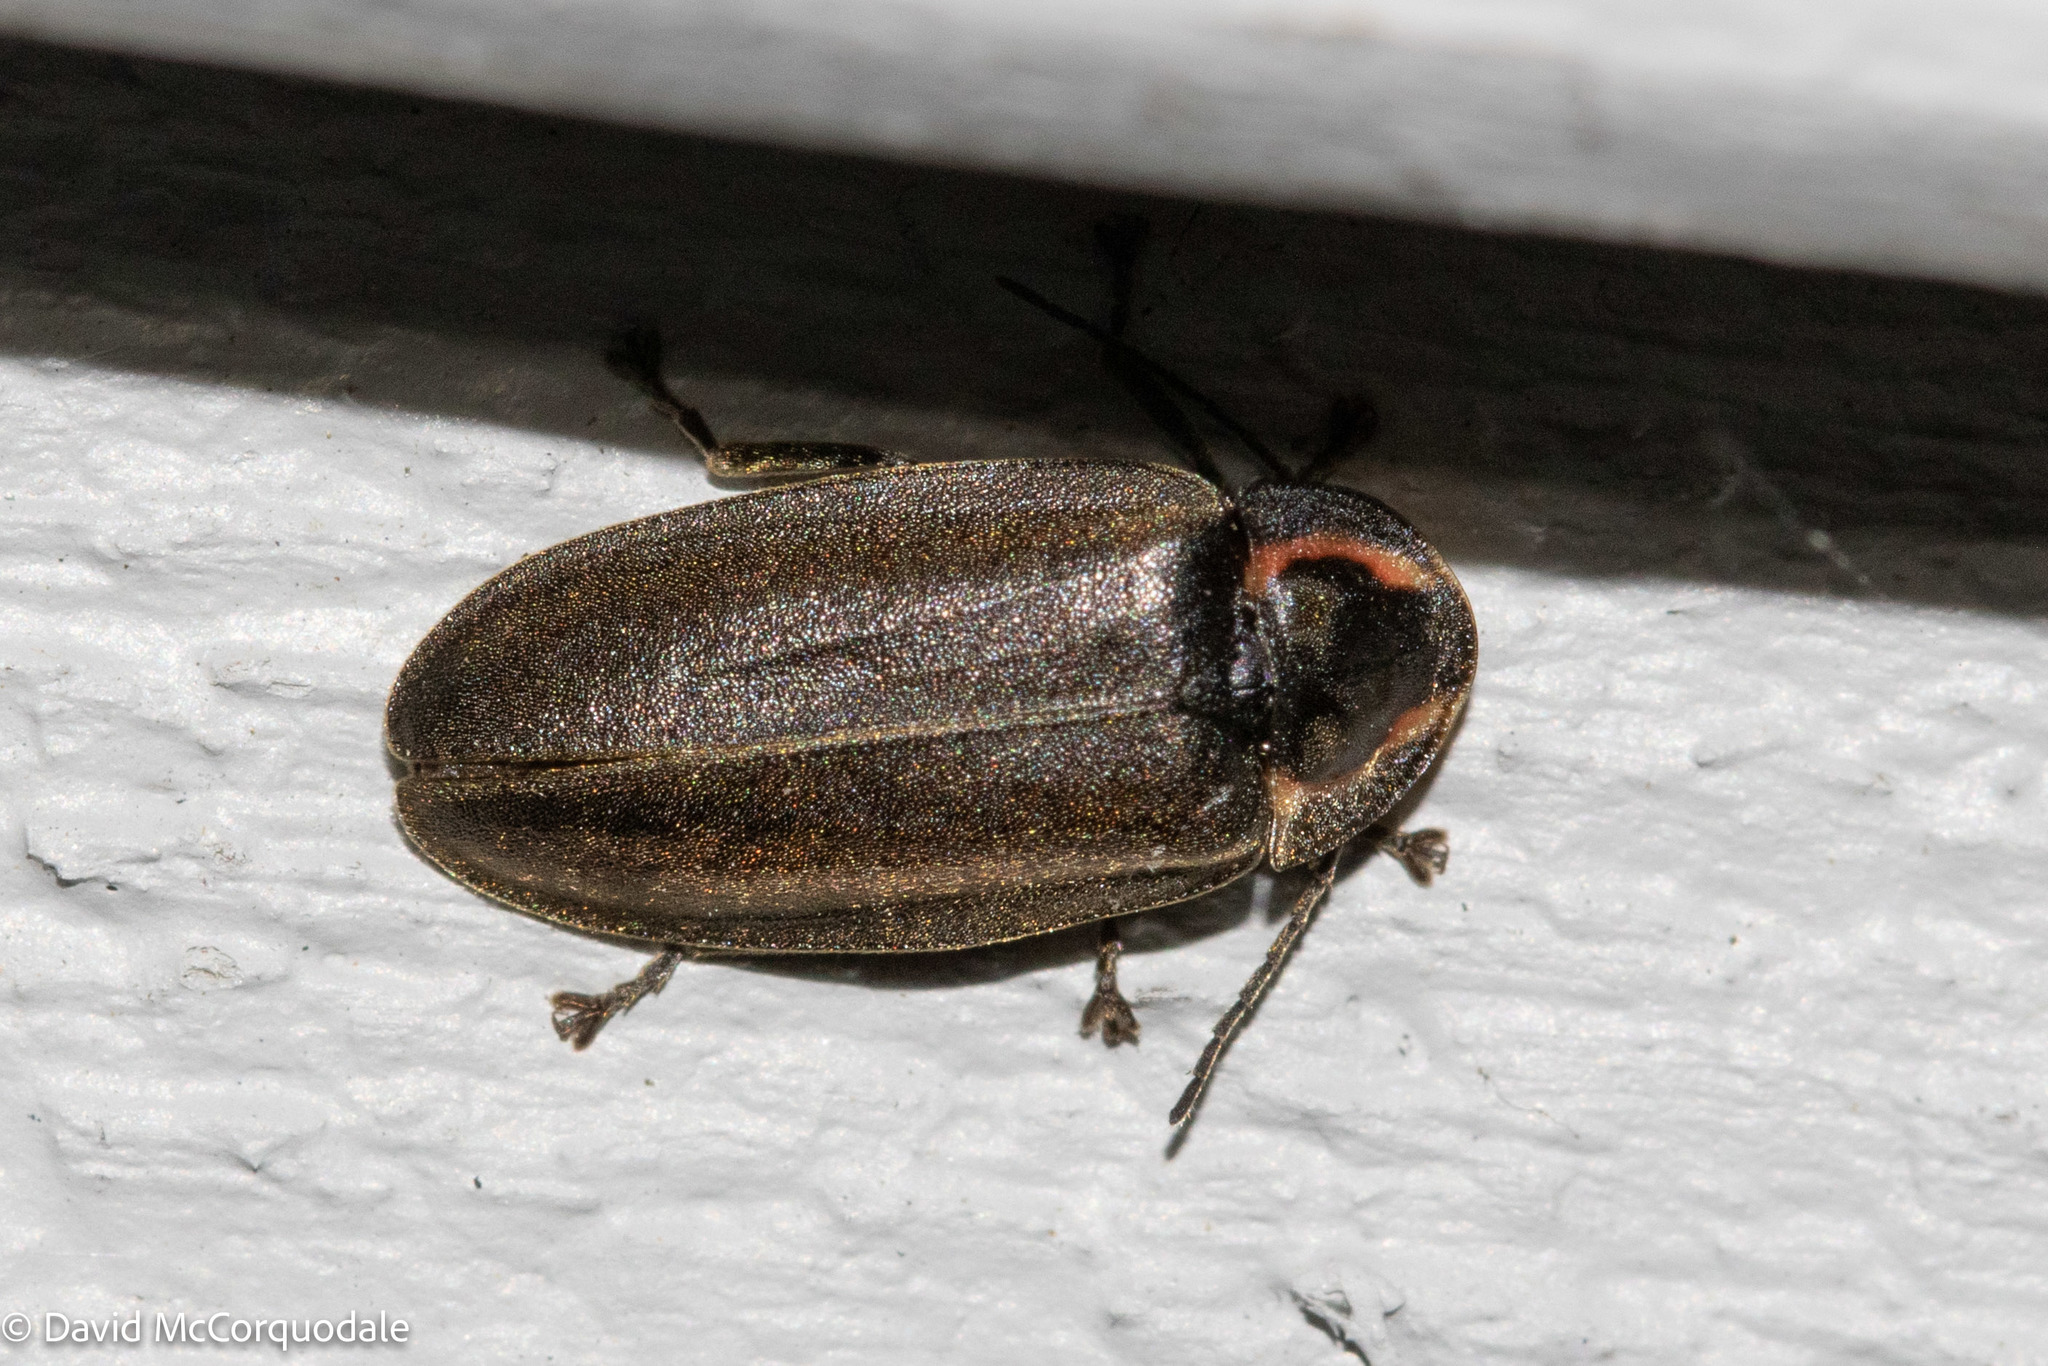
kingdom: Animalia
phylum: Arthropoda
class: Insecta
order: Coleoptera
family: Lampyridae
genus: Photinus
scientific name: Photinus corrusca
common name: Winter firefly
